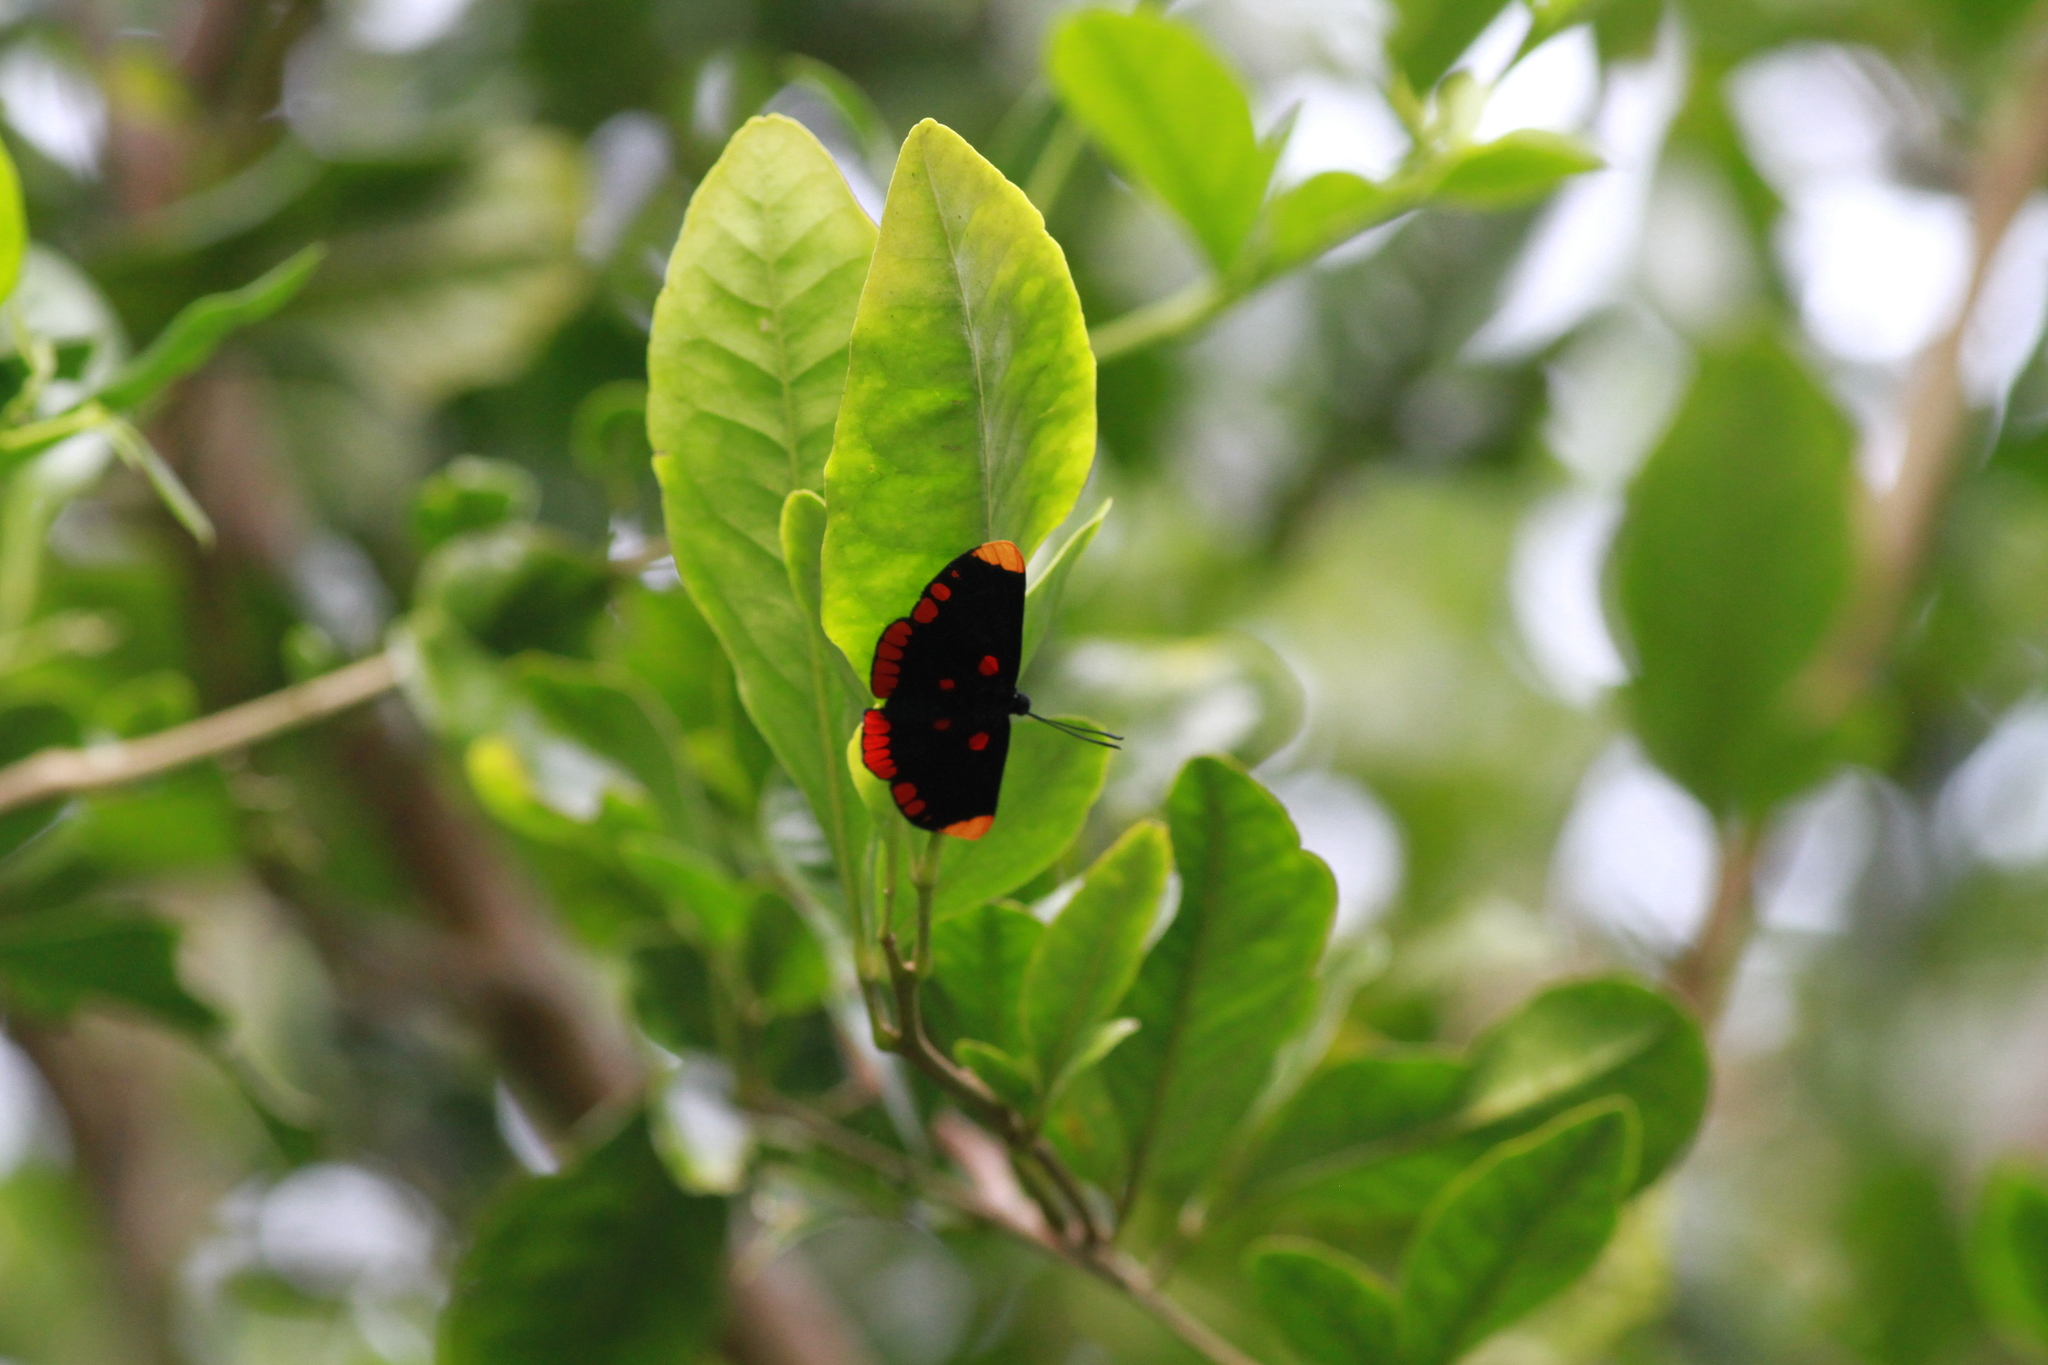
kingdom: Animalia
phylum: Arthropoda
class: Insecta
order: Lepidoptera
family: Lycaenidae
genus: Melanis
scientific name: Melanis pixe
